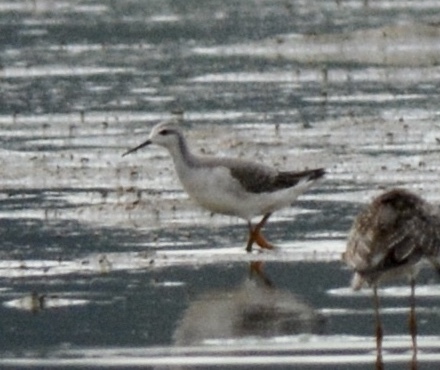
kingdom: Animalia
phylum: Chordata
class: Aves
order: Charadriiformes
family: Scolopacidae
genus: Phalaropus
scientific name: Phalaropus tricolor
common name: Wilson's phalarope
